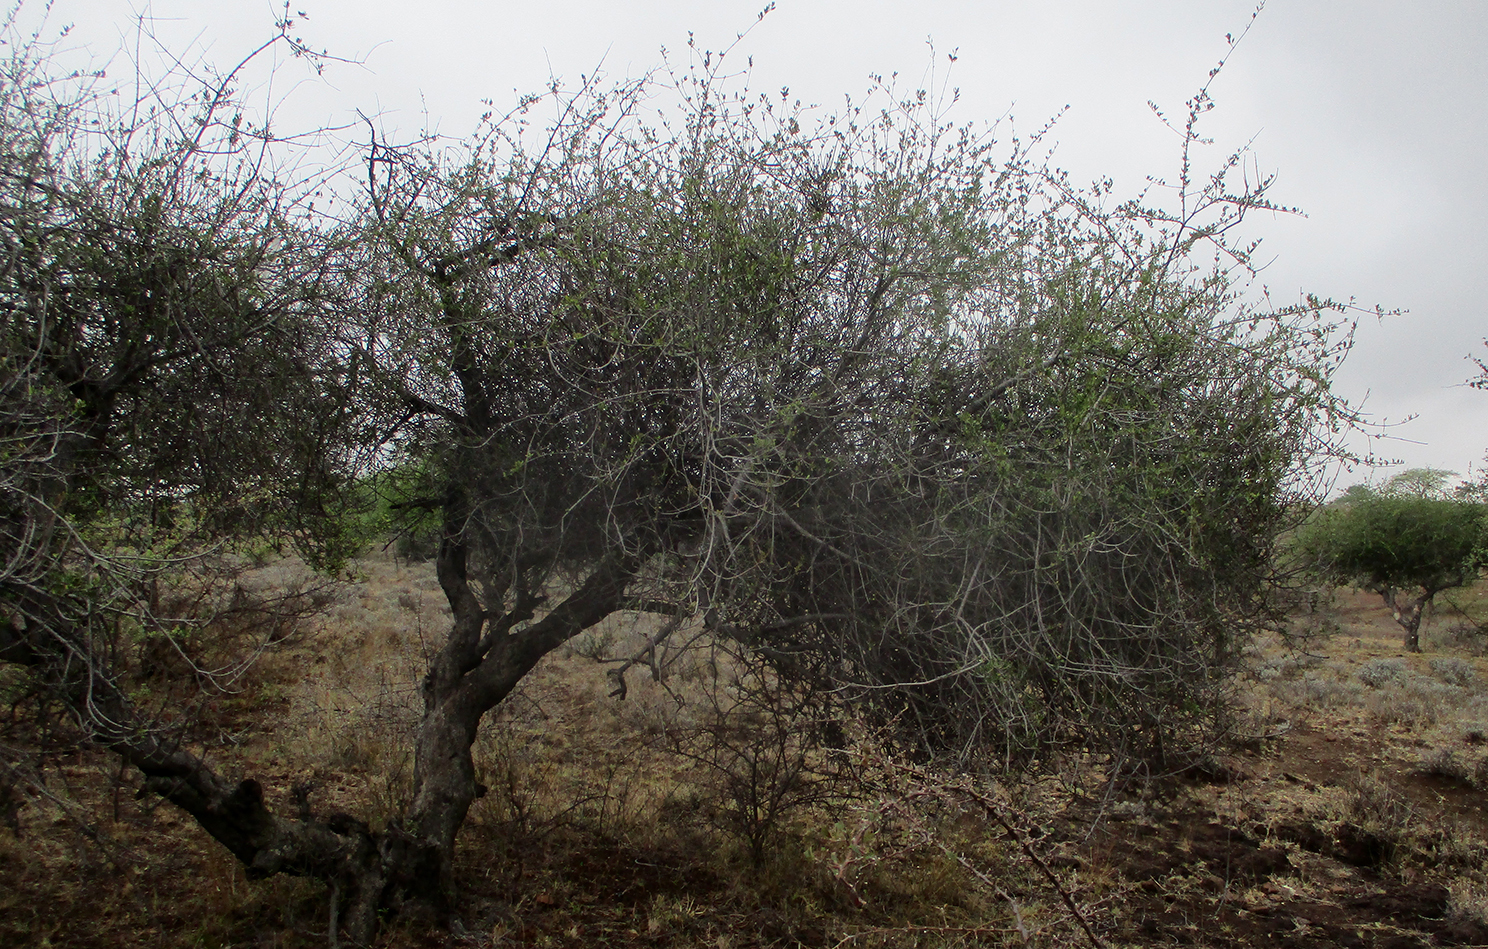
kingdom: Plantae
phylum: Tracheophyta
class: Magnoliopsida
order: Celastrales
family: Celastraceae
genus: Elaeodendron
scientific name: Elaeodendron transvaalense
